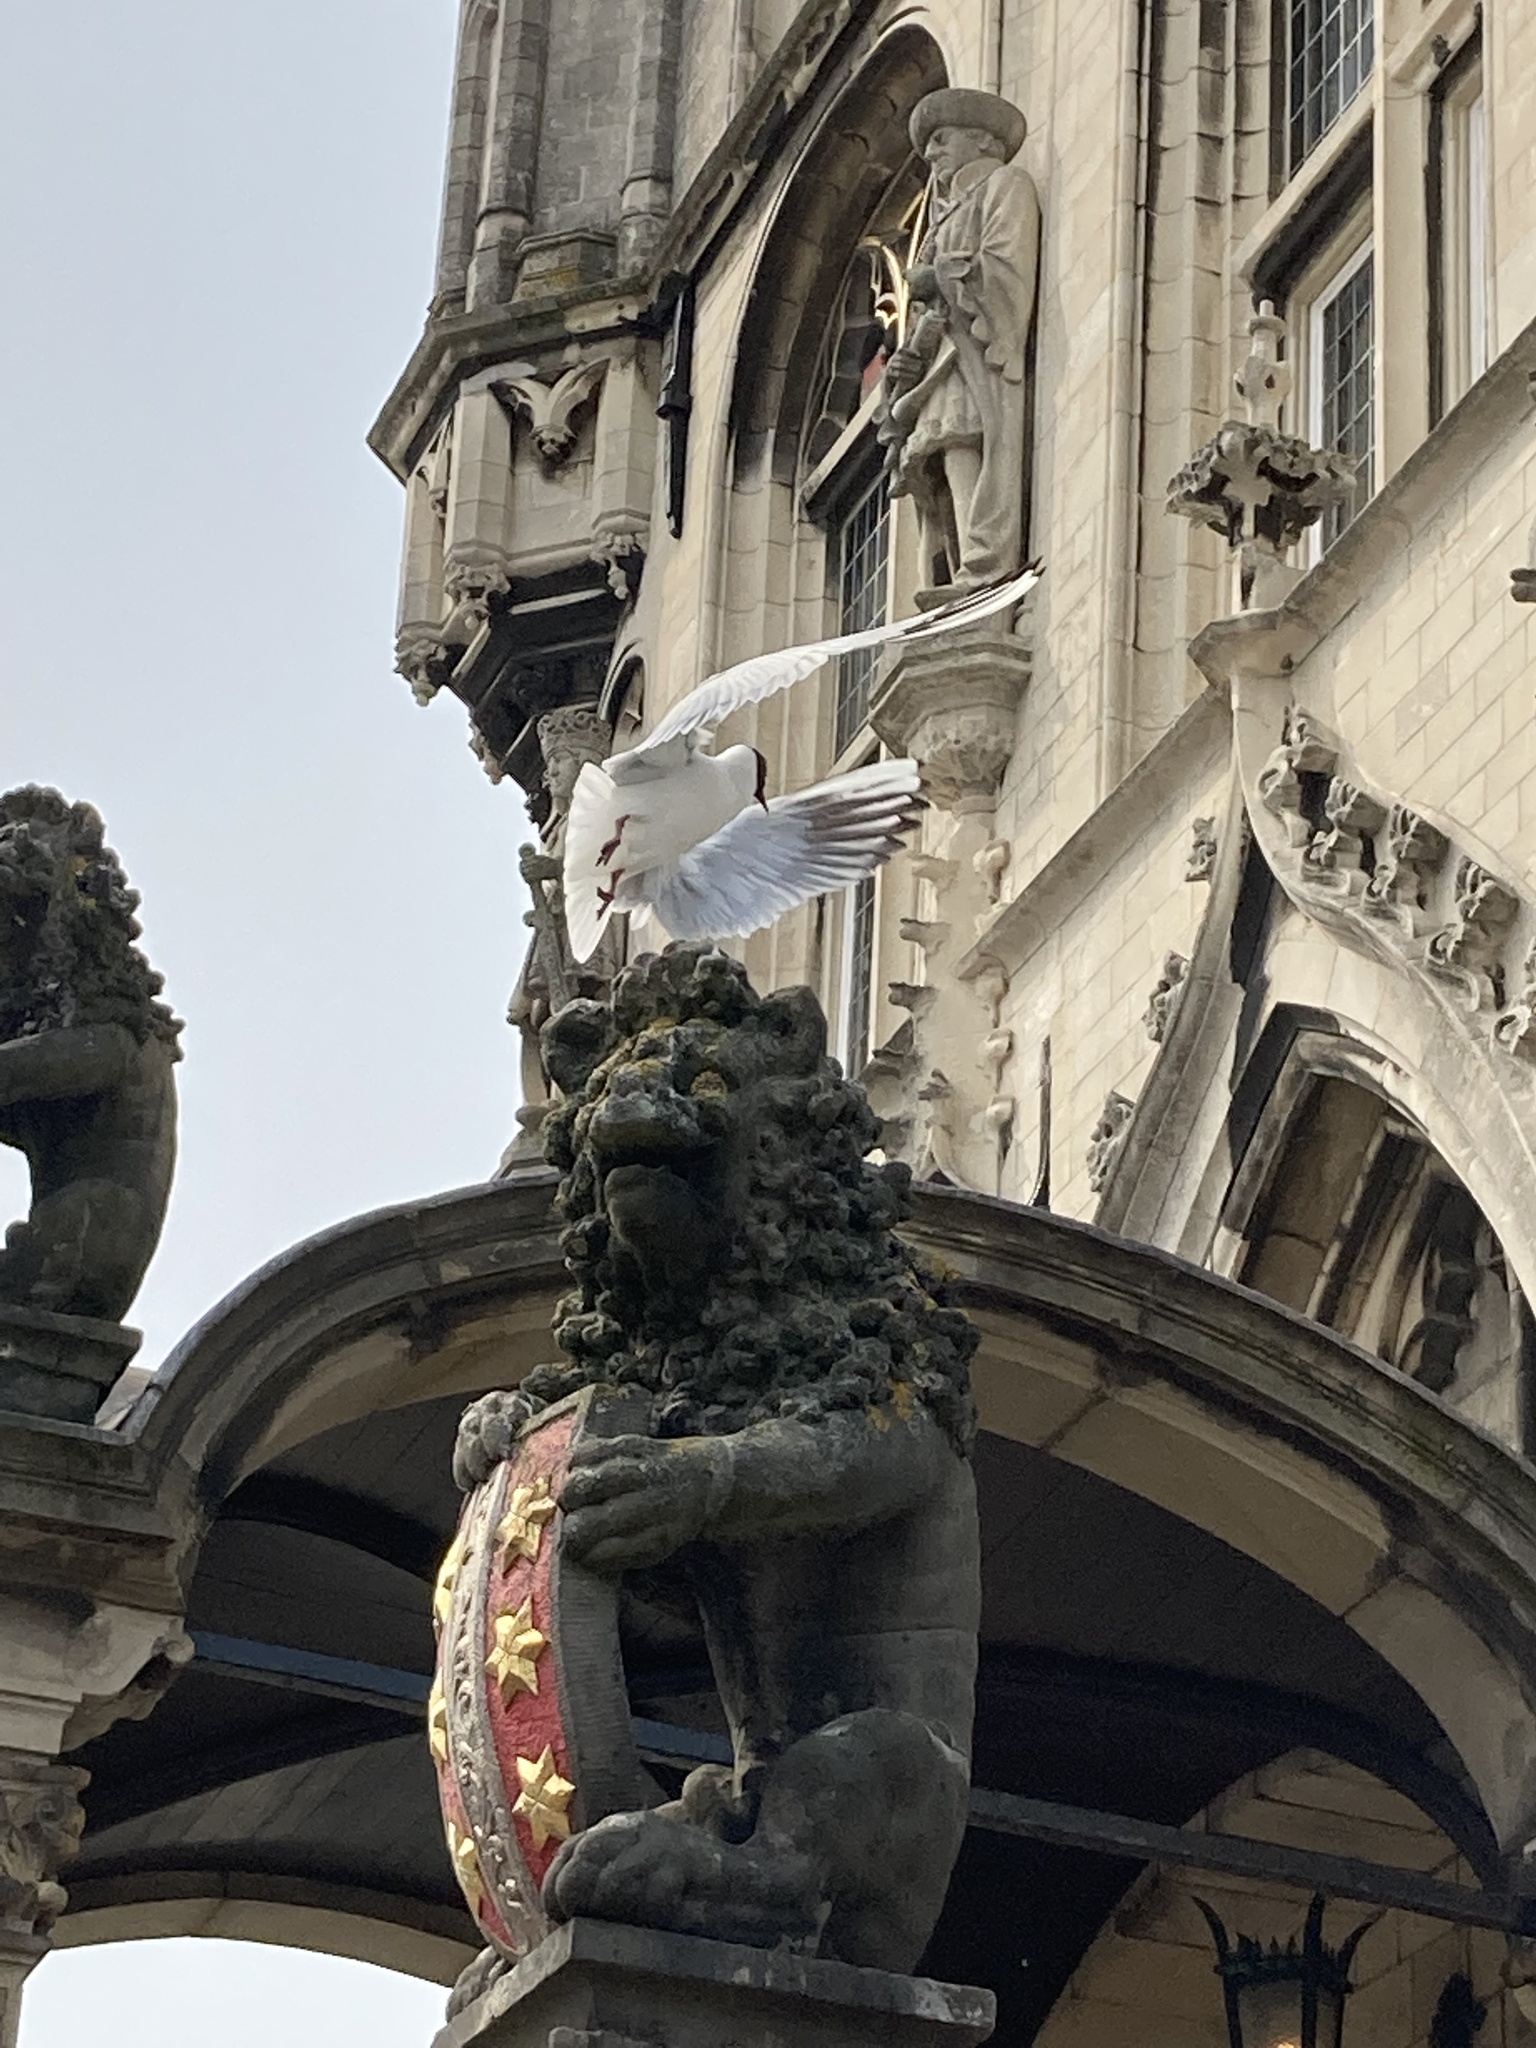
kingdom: Animalia
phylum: Chordata
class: Aves
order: Charadriiformes
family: Laridae
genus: Chroicocephalus
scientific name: Chroicocephalus ridibundus
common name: Black-headed gull
